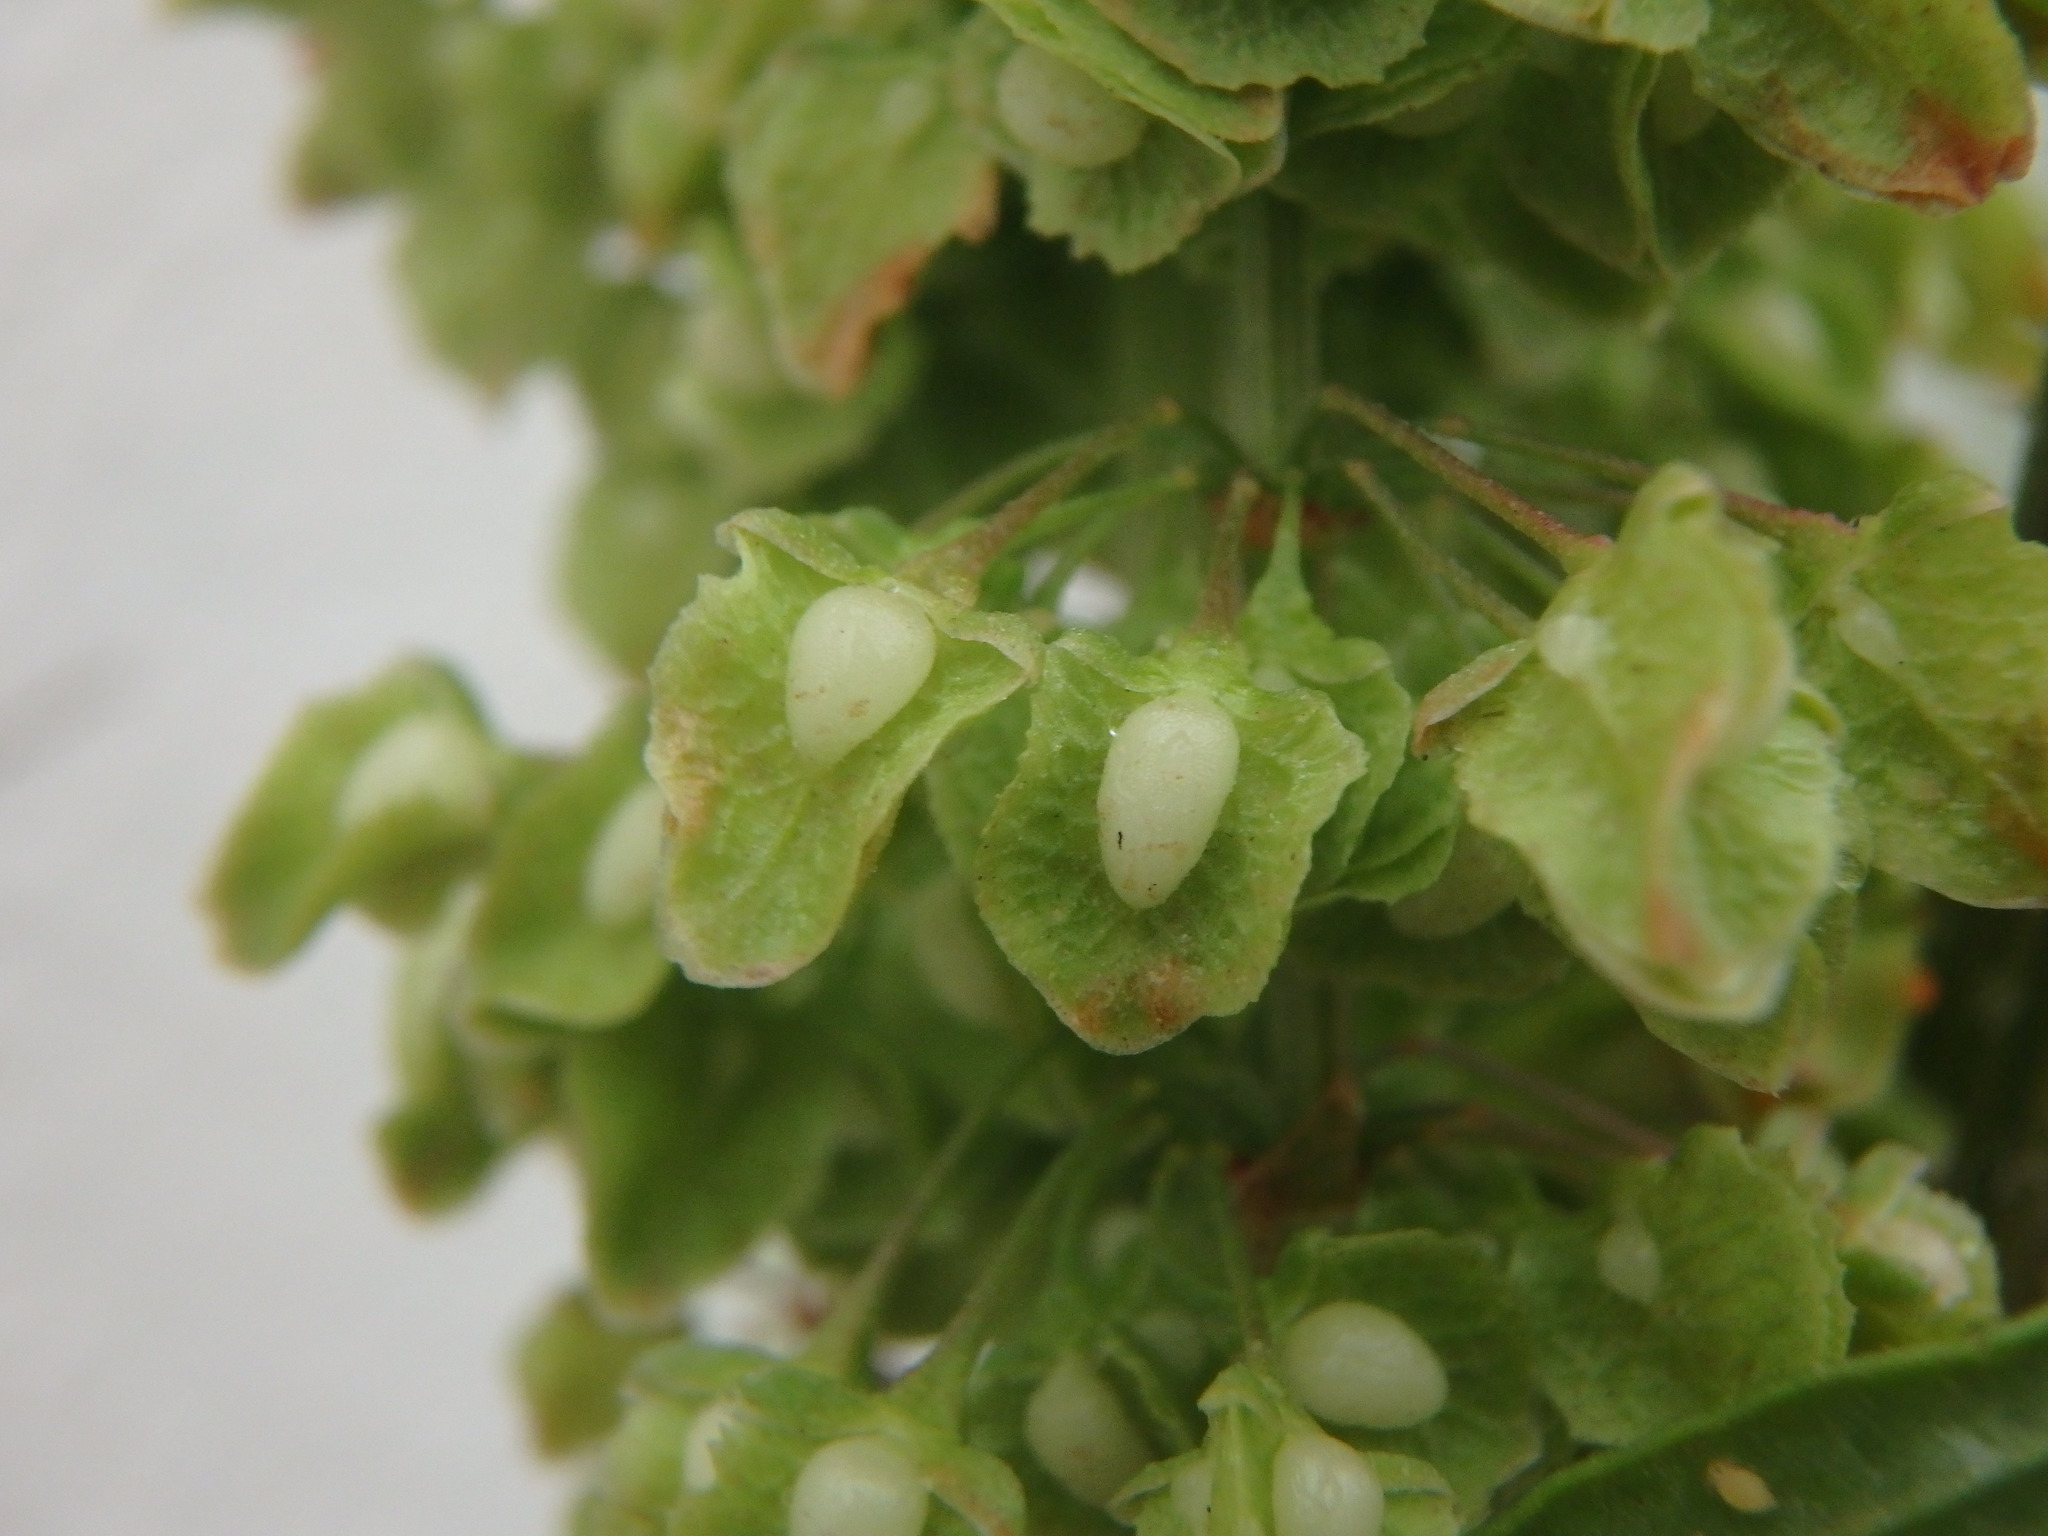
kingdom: Plantae
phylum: Tracheophyta
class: Magnoliopsida
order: Caryophyllales
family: Polygonaceae
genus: Rumex
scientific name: Rumex crispus
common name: Curled dock
